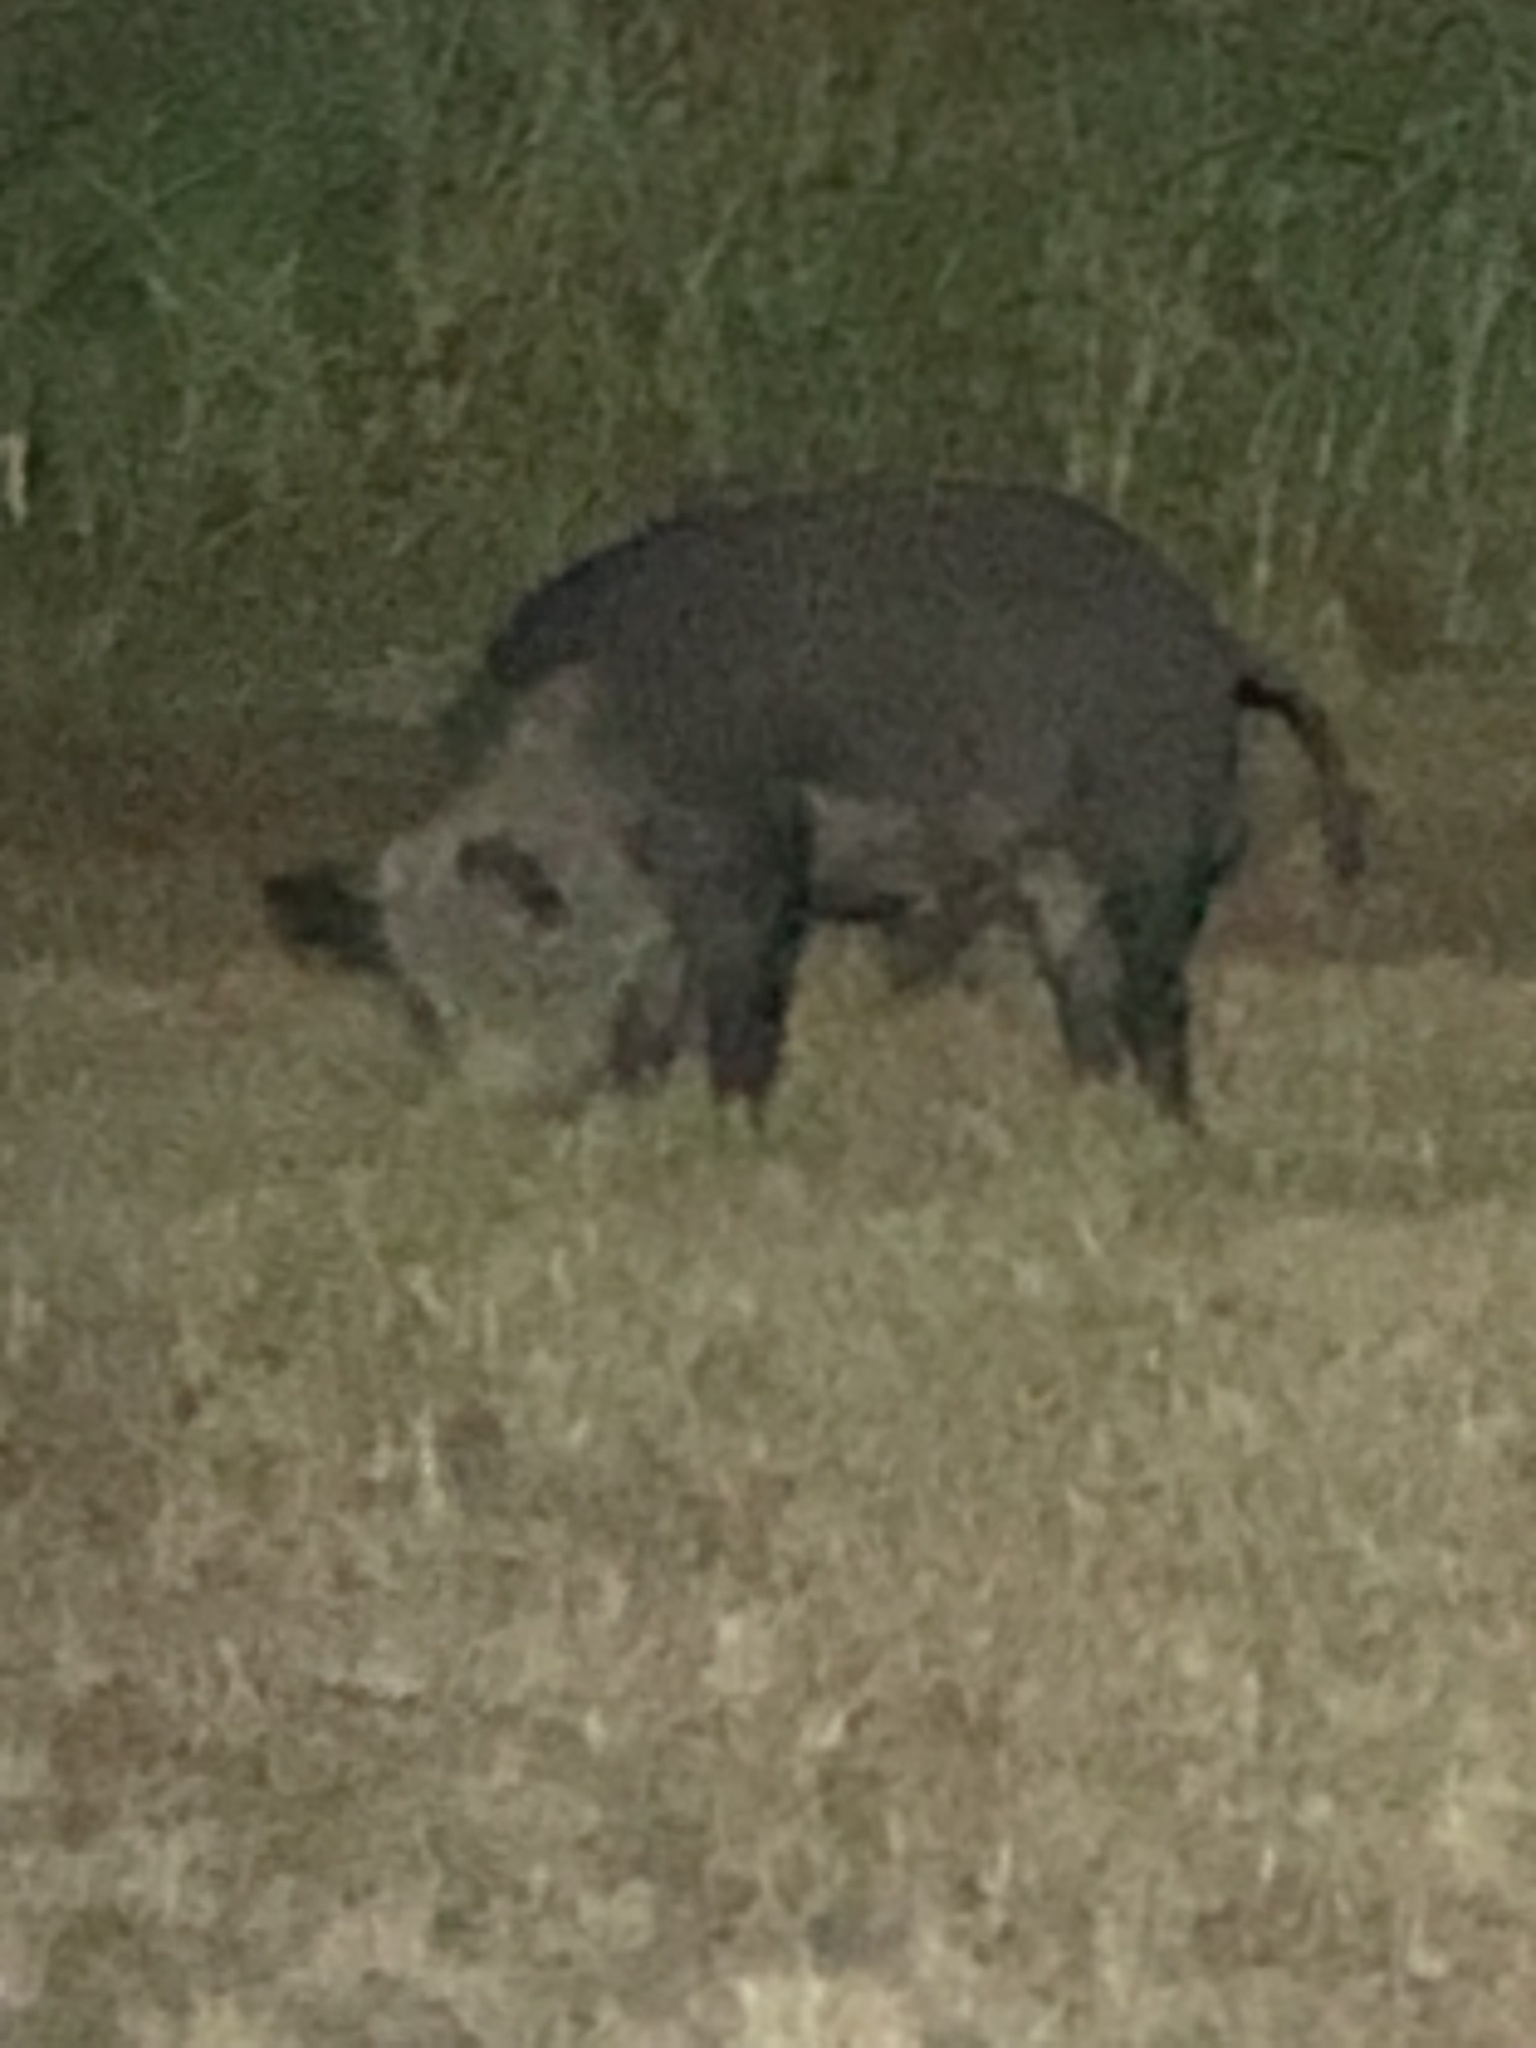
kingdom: Animalia
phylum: Chordata
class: Mammalia
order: Artiodactyla
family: Suidae
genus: Sus
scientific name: Sus scrofa
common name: Wild boar
